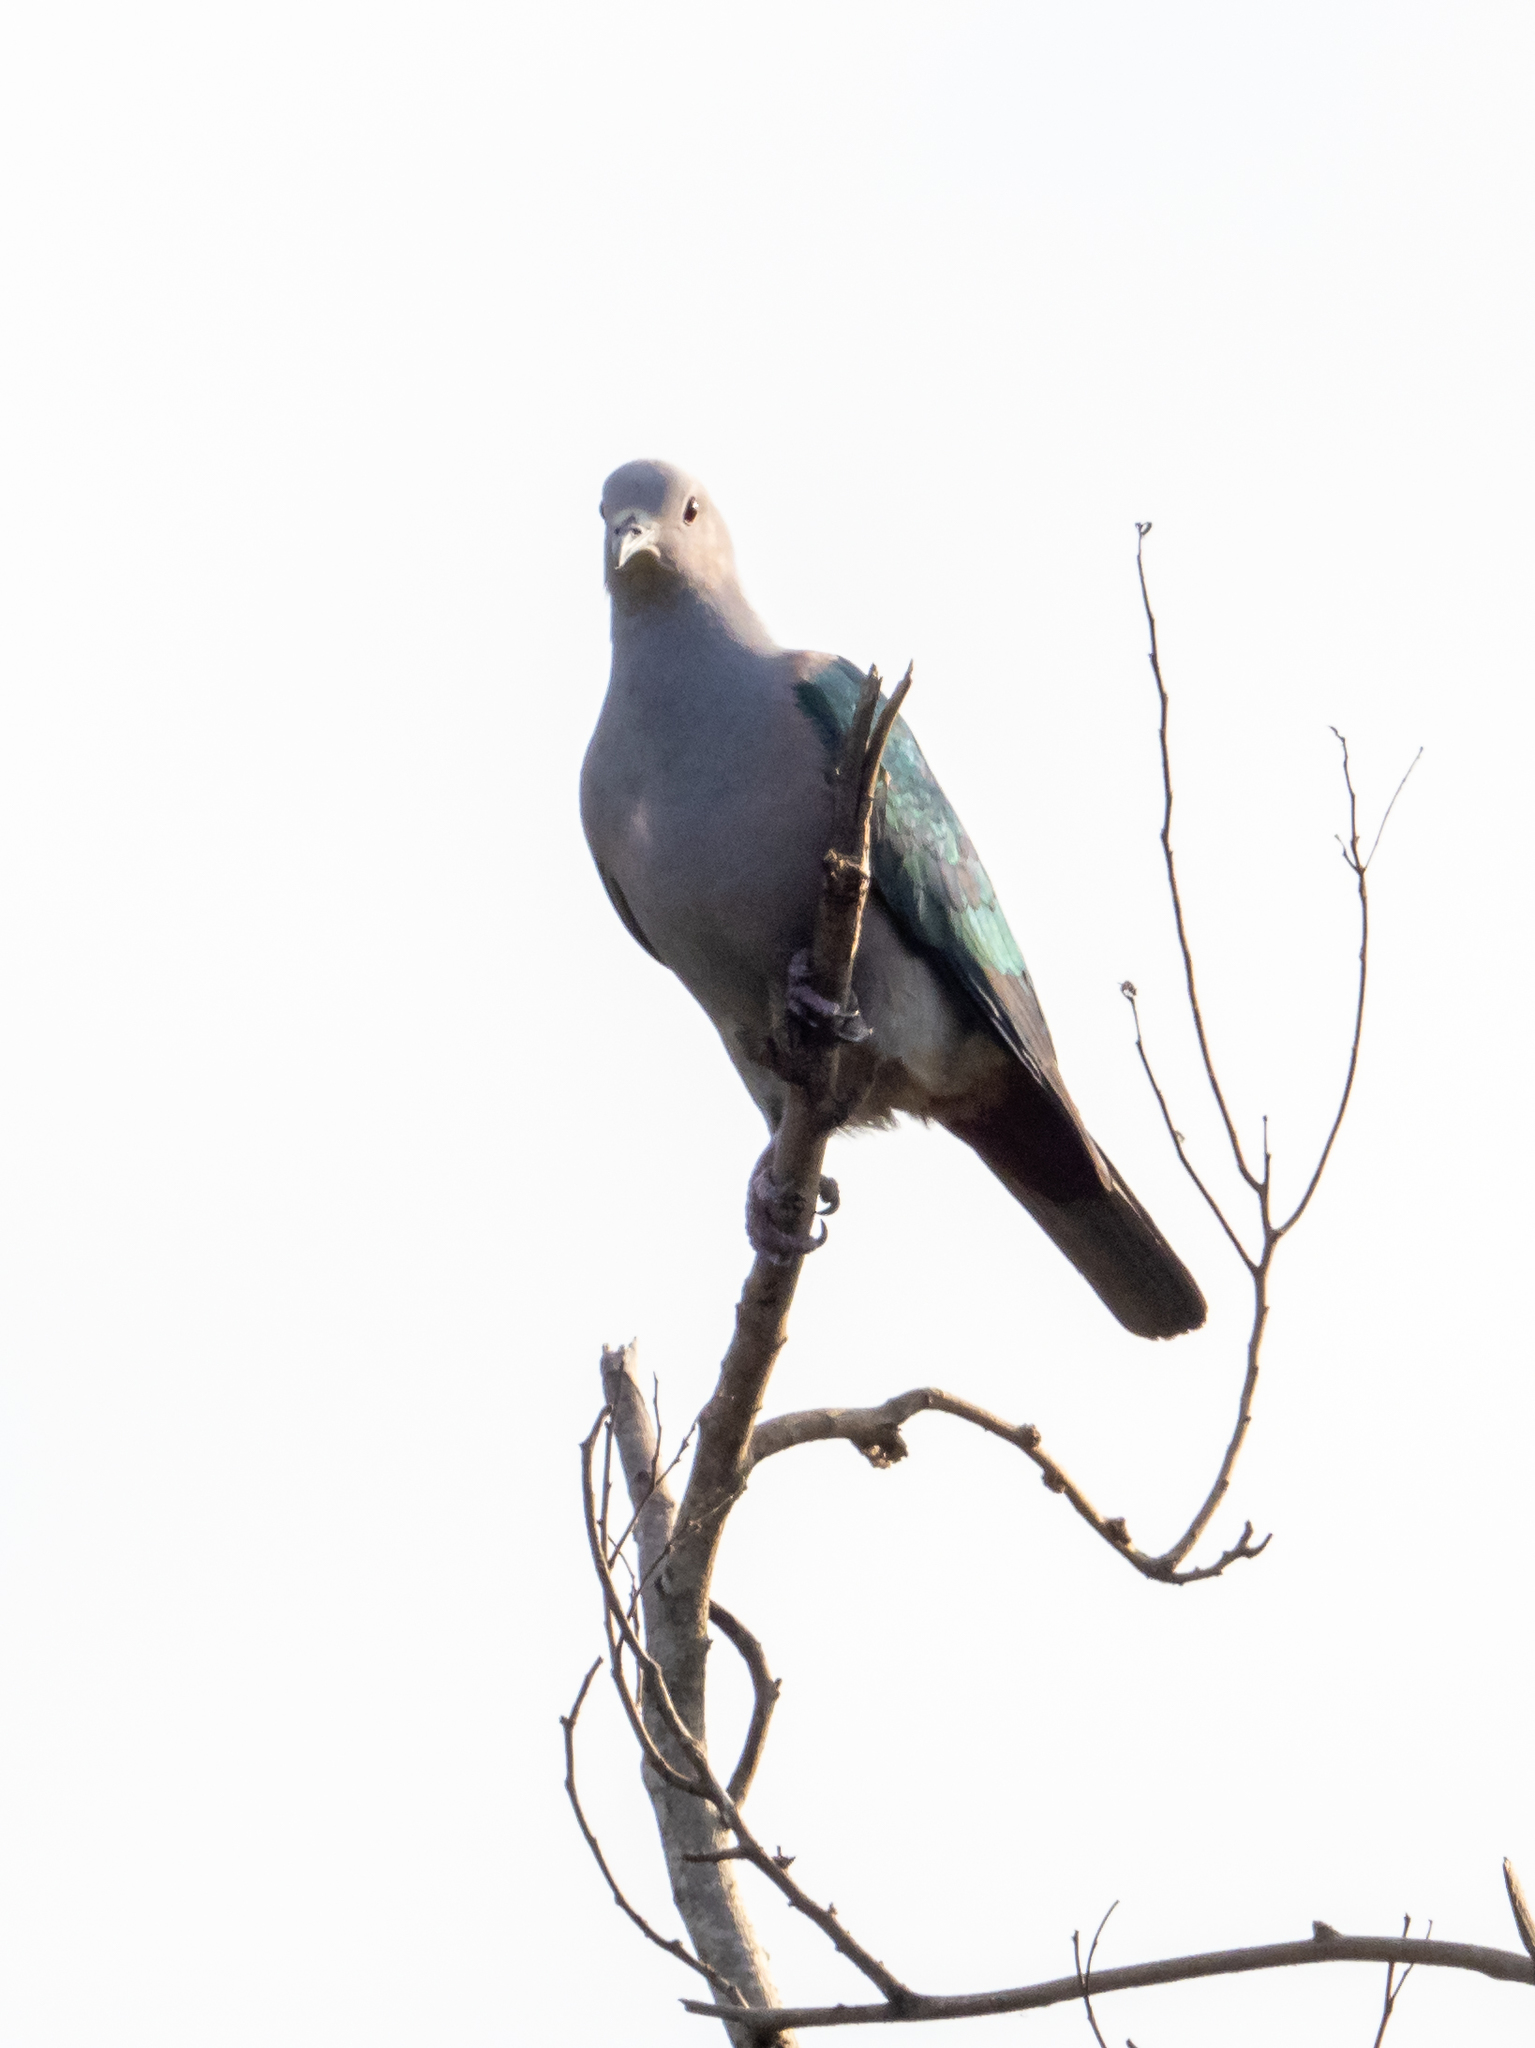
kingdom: Animalia
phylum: Chordata
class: Aves
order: Columbiformes
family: Columbidae
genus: Ducula
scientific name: Ducula aenea
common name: Green imperial pigeon
